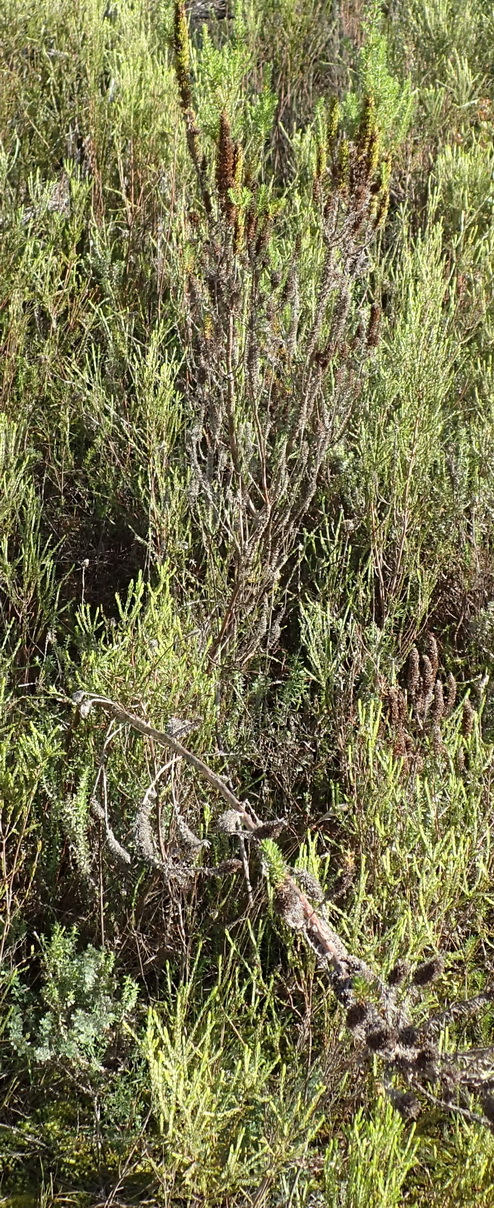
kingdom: Plantae
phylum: Tracheophyta
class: Magnoliopsida
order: Gentianales
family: Rubiaceae
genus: Anthospermum
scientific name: Anthospermum aethiopicum
